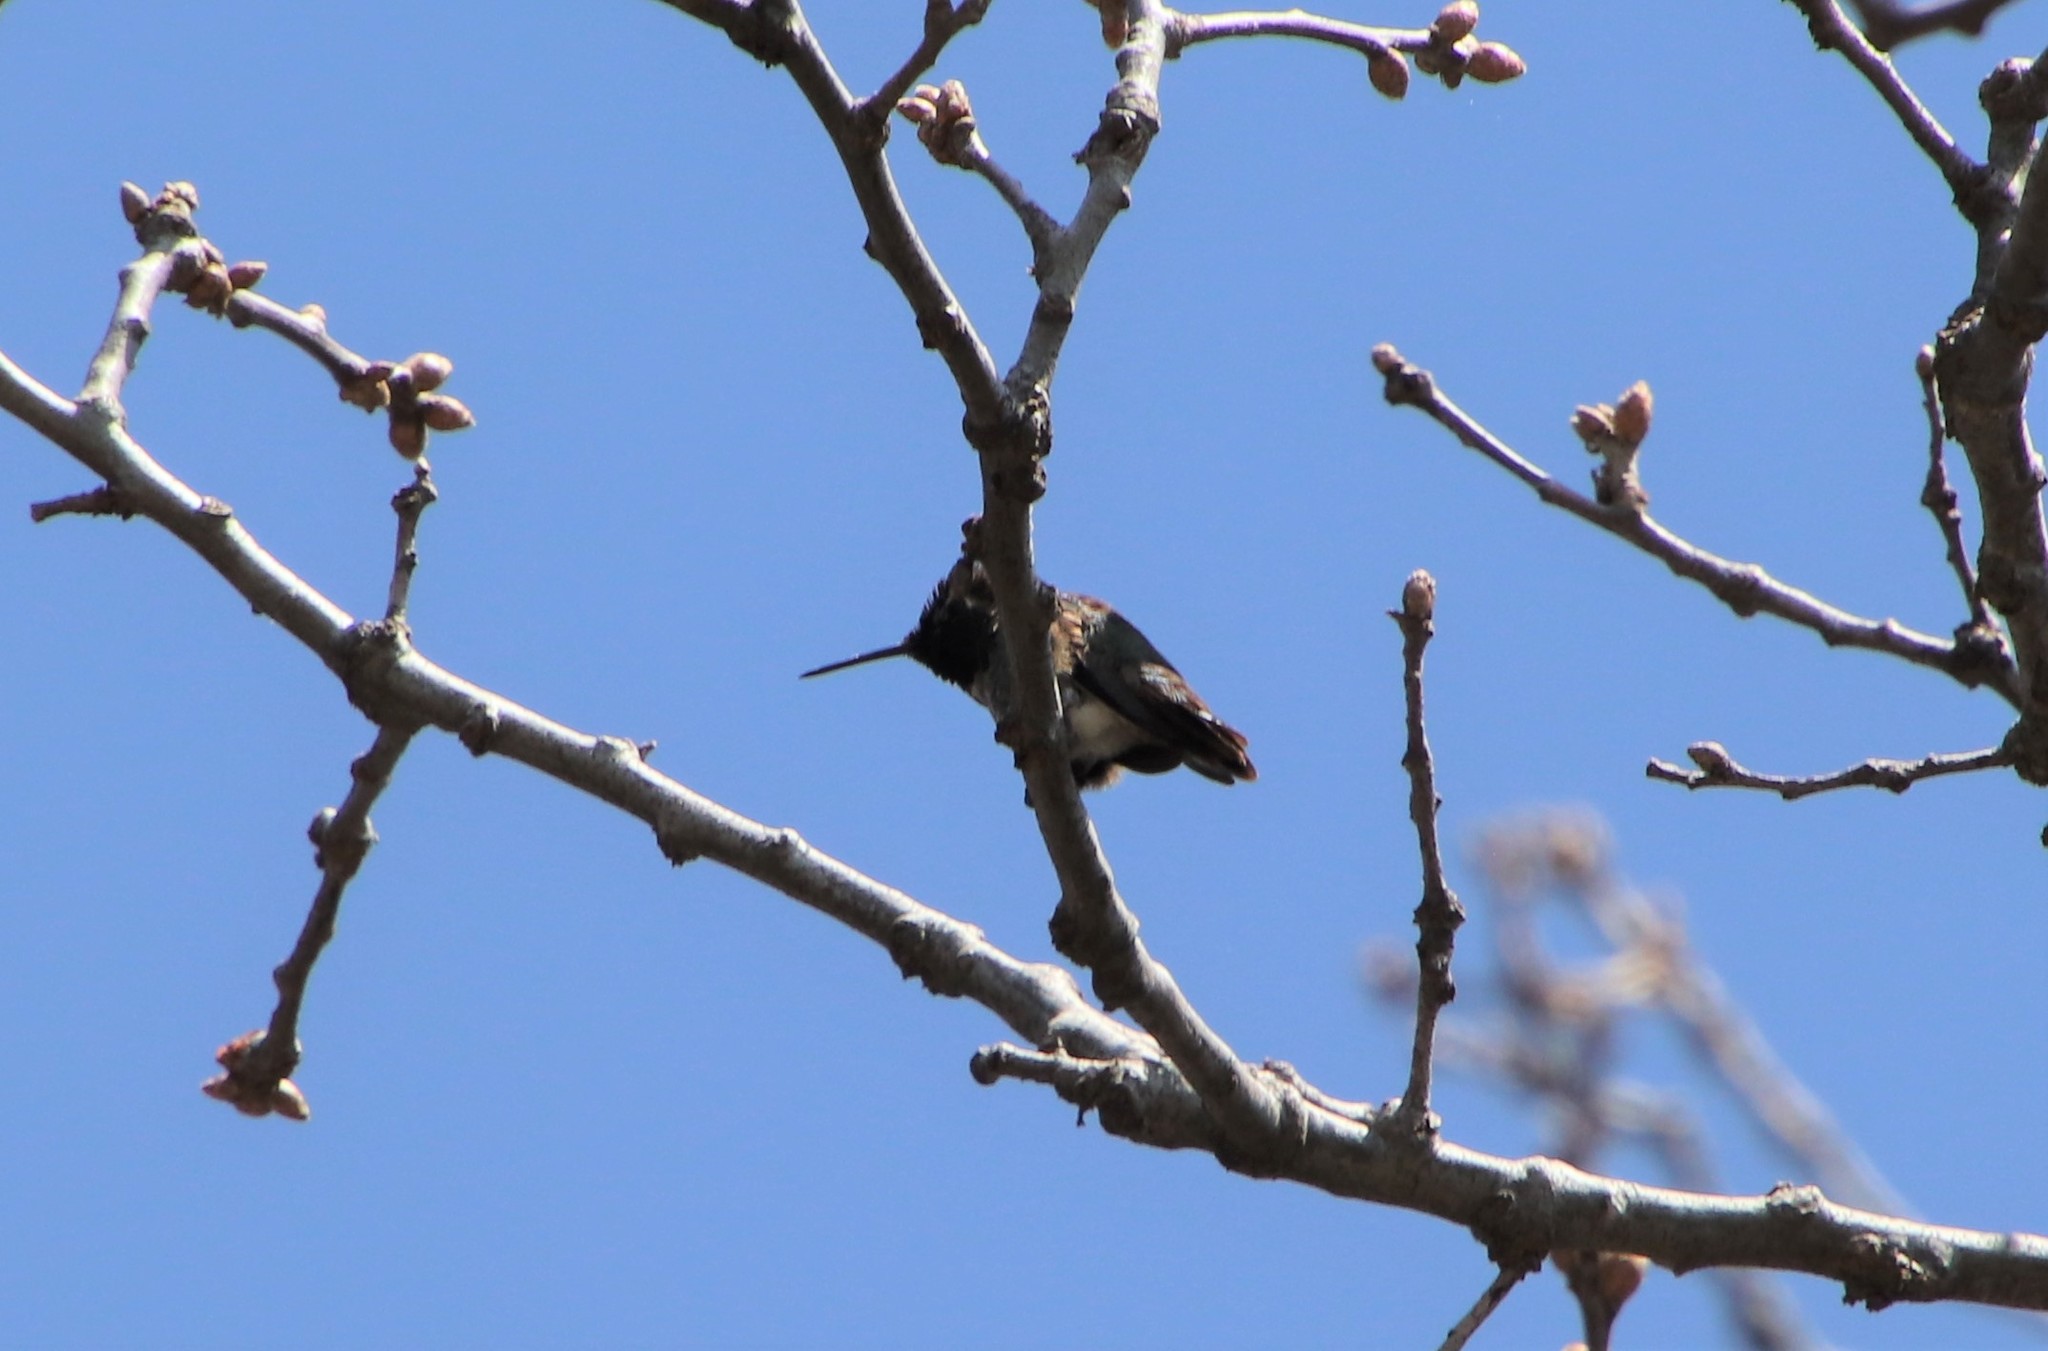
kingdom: Animalia
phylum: Chordata
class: Aves
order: Apodiformes
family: Trochilidae
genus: Calypte
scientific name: Calypte anna
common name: Anna's hummingbird
